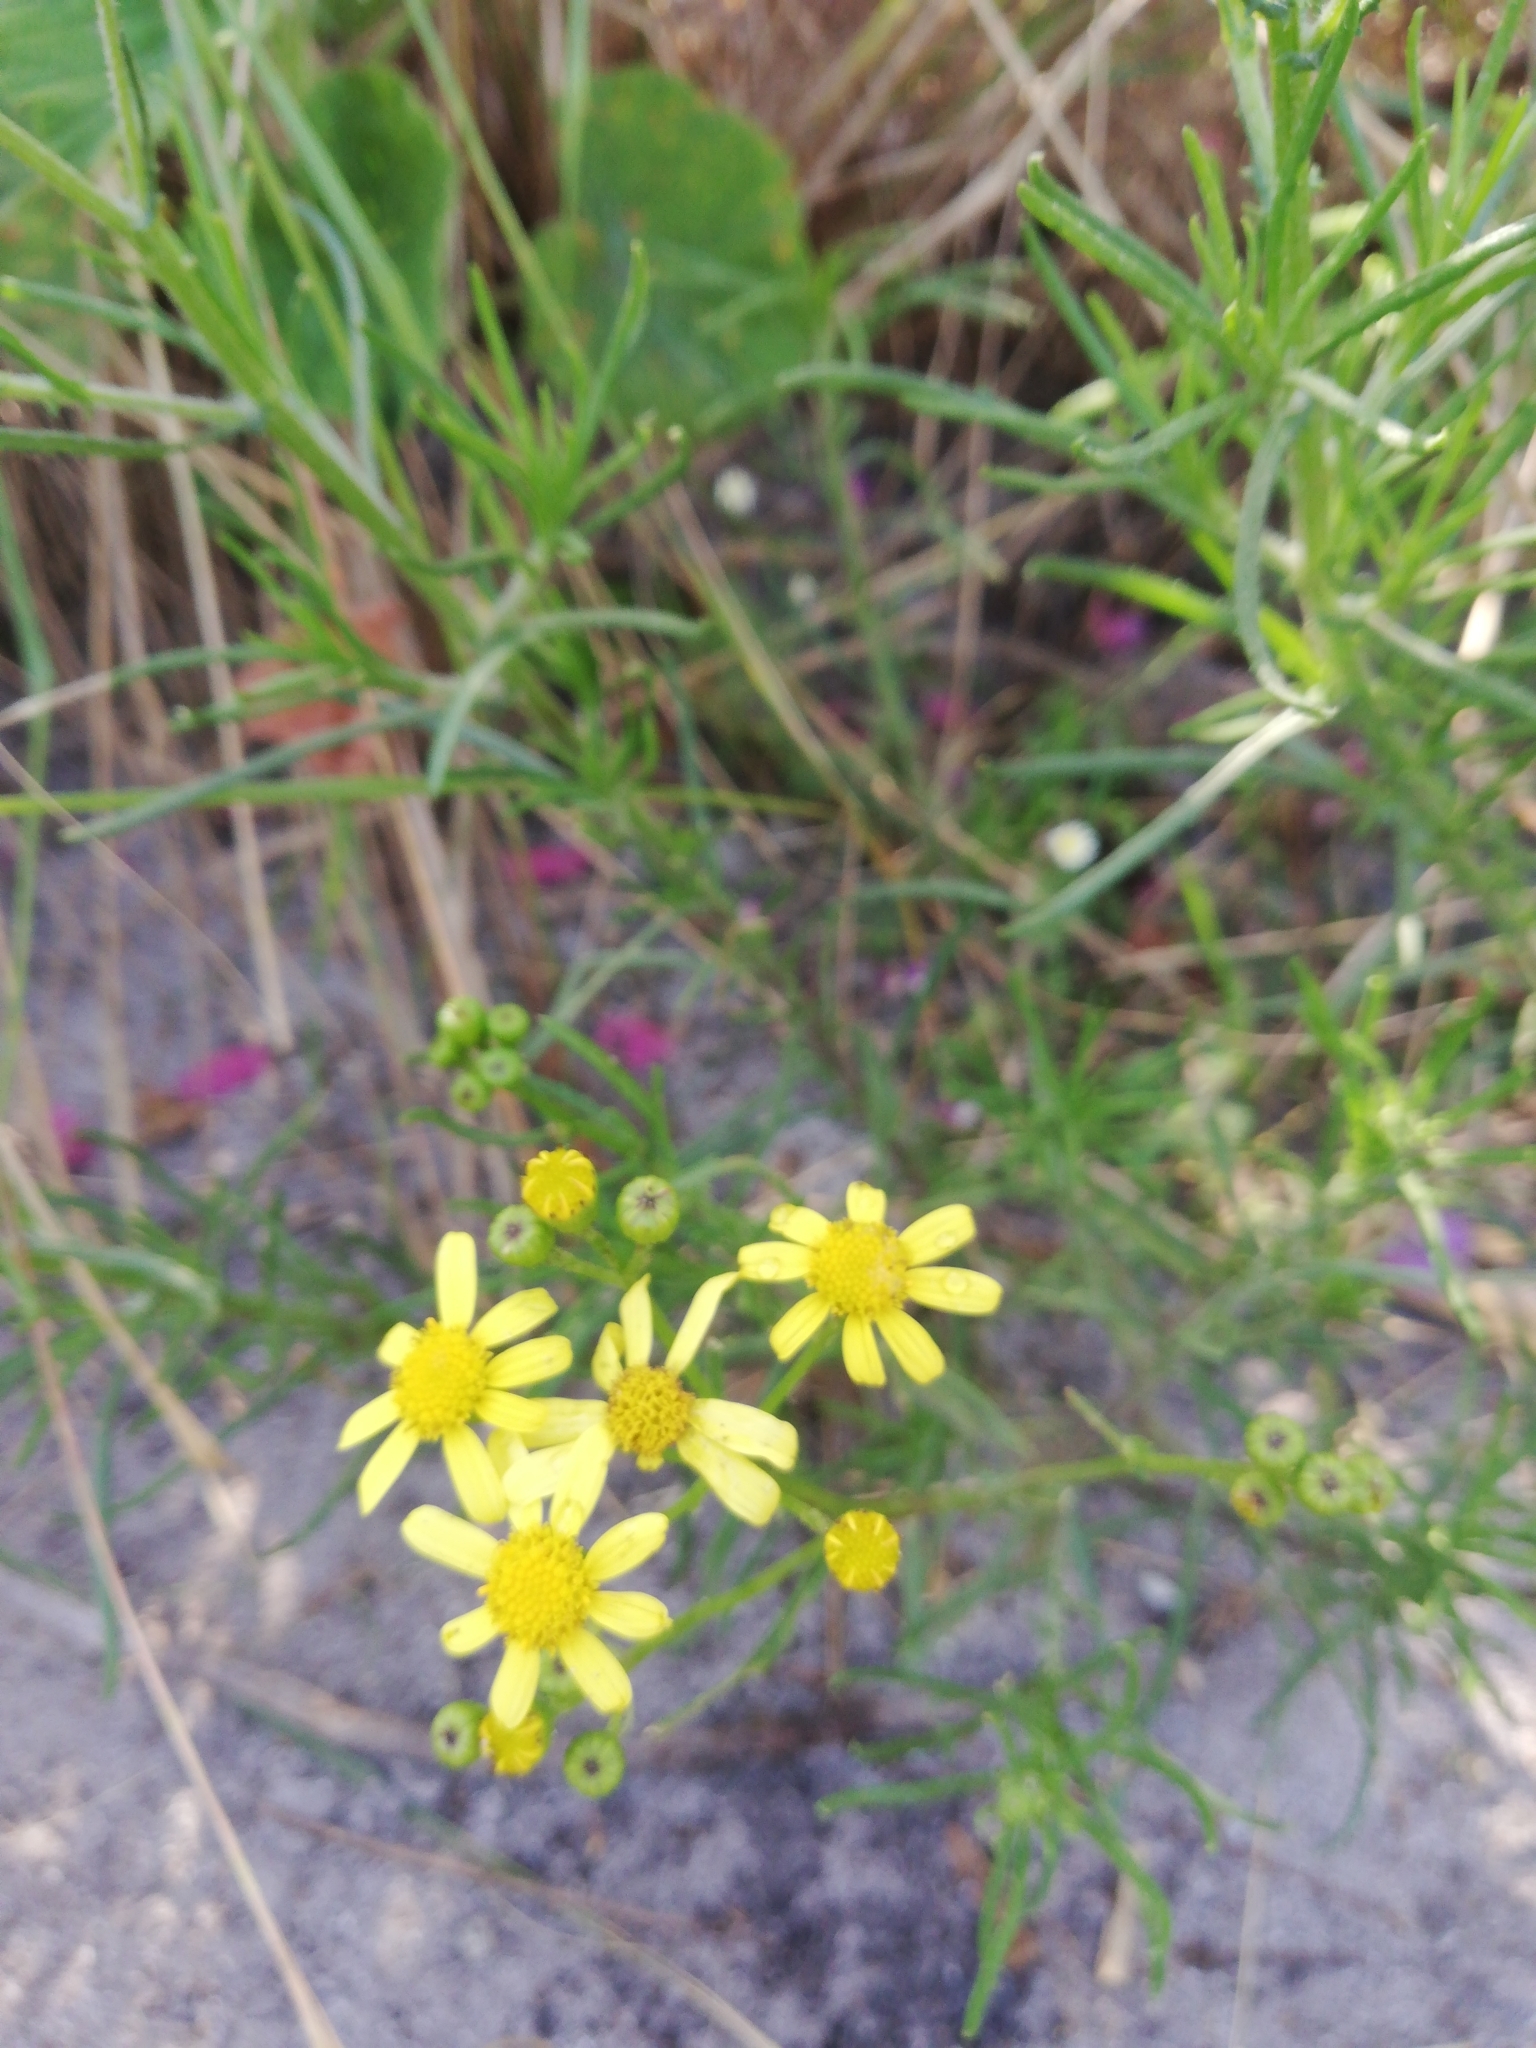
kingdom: Plantae
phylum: Tracheophyta
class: Magnoliopsida
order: Asterales
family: Asteraceae
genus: Senecio
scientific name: Senecio burchellii
